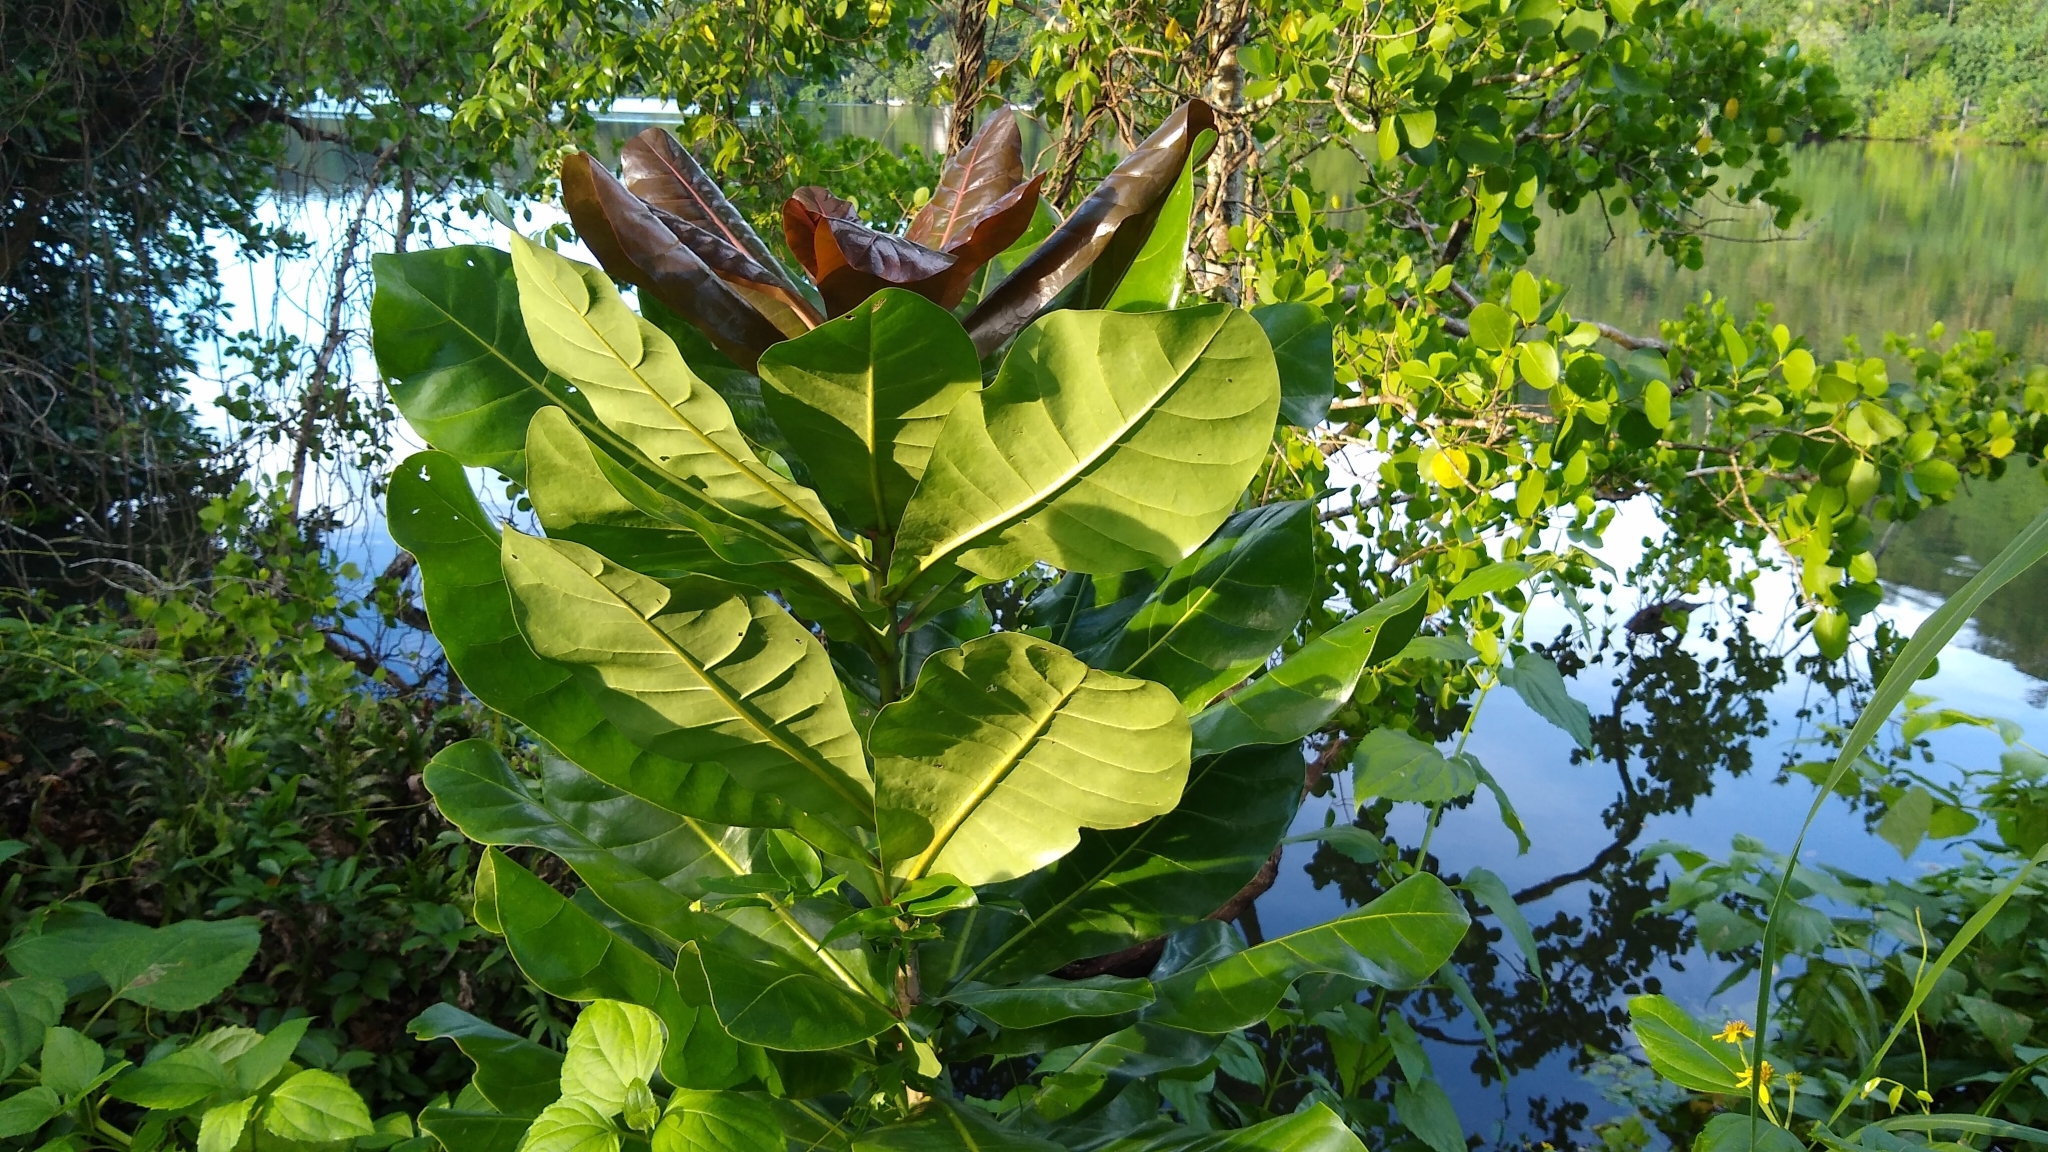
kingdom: Plantae
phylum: Tracheophyta
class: Magnoliopsida
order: Ericales
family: Lecythidaceae
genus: Barringtonia
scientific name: Barringtonia asiatica
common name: Mango-pine
